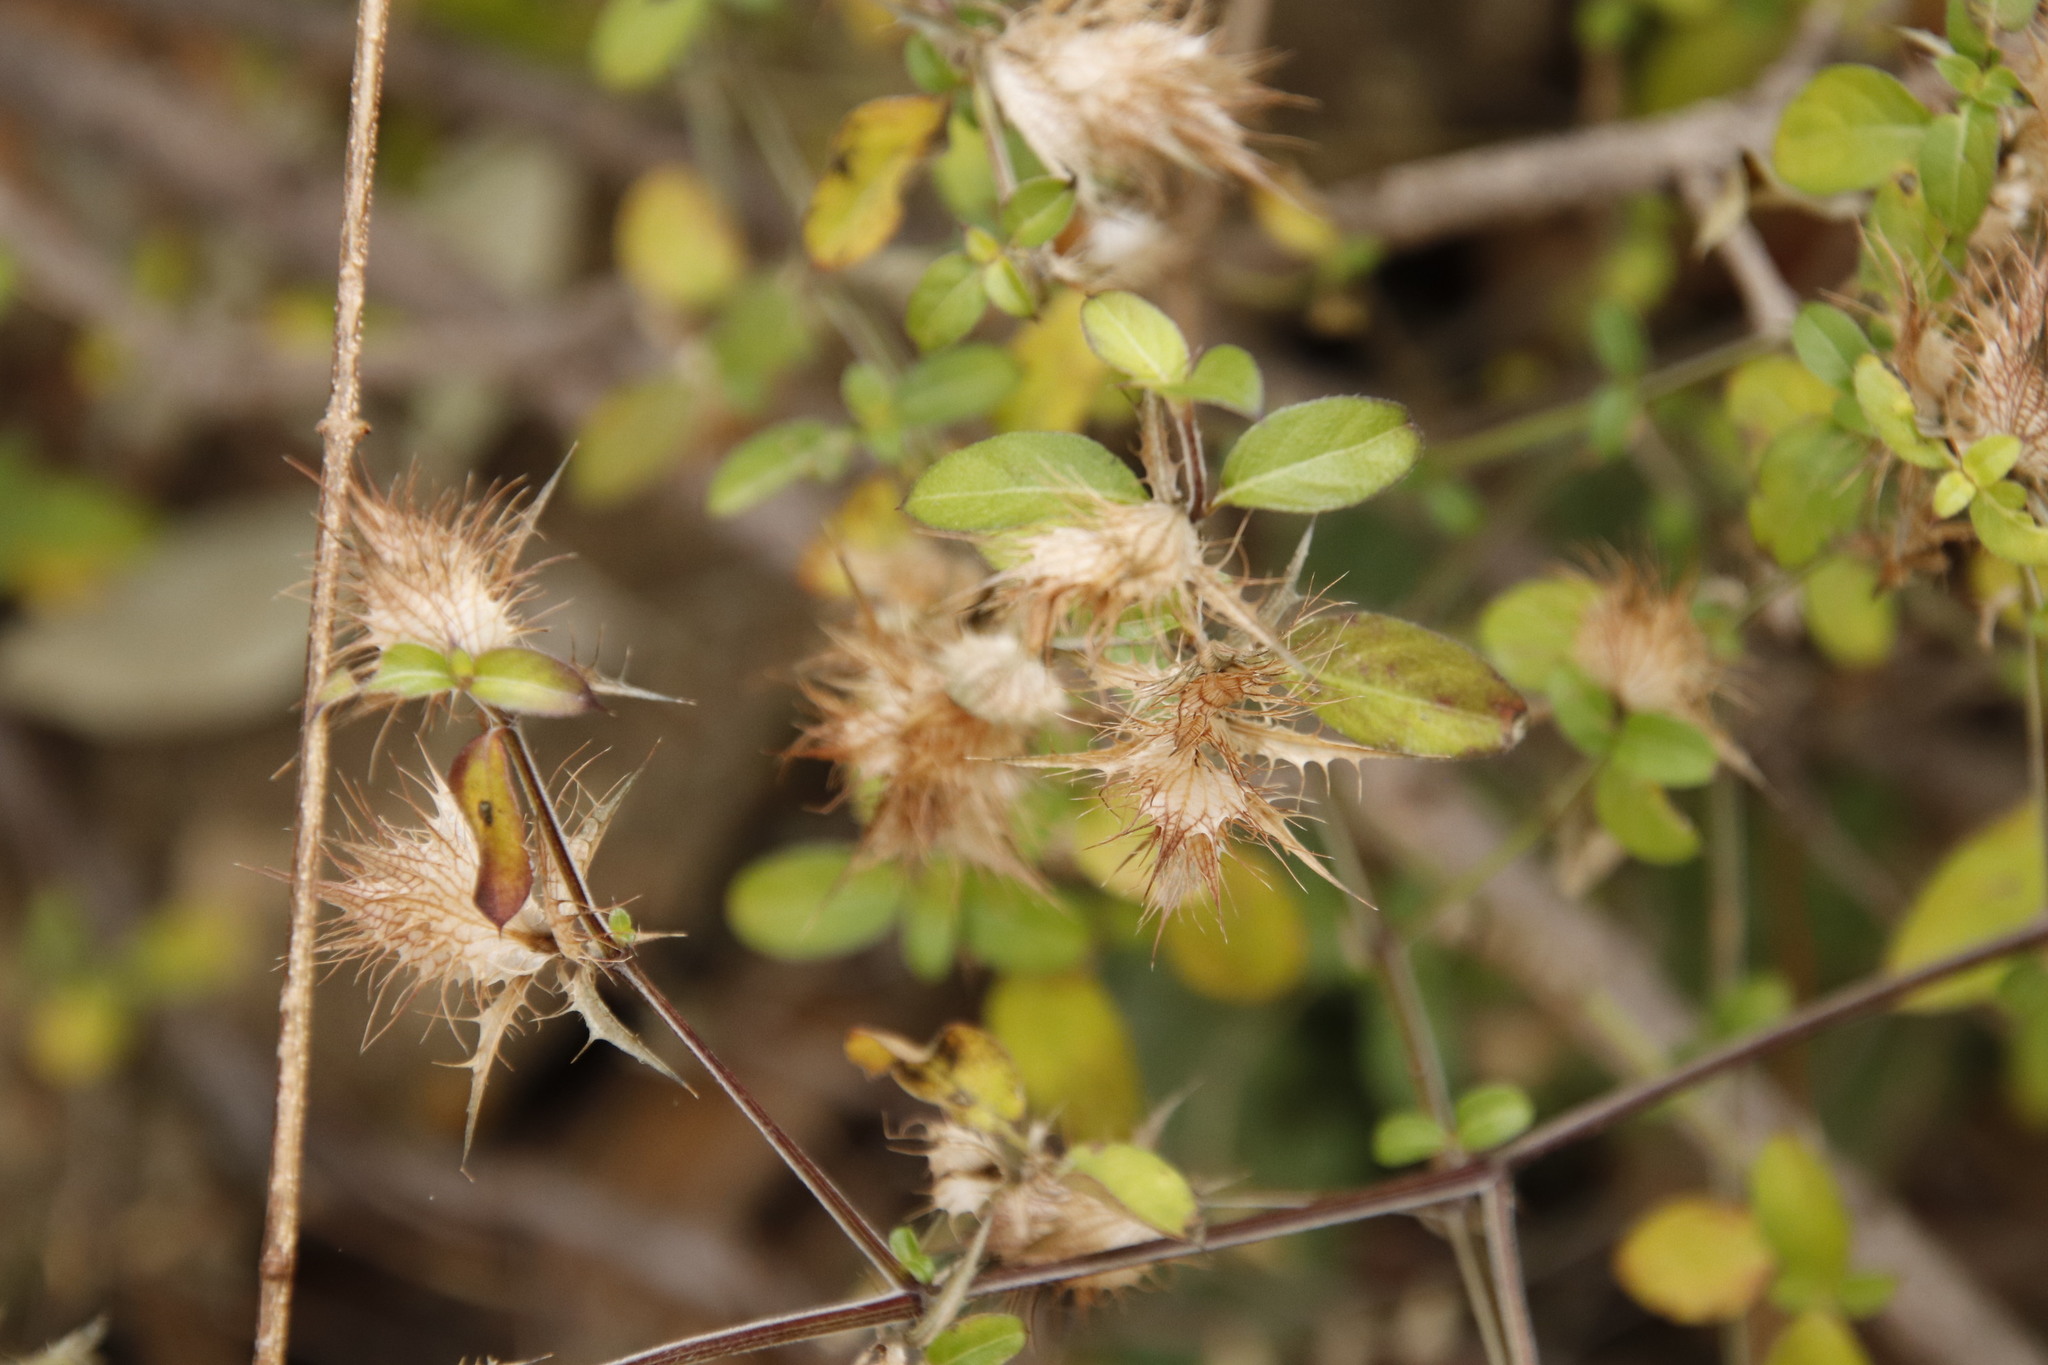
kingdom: Plantae
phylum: Tracheophyta
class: Magnoliopsida
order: Lamiales
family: Acanthaceae
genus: Blepharis
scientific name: Blepharis maderaspatensis
